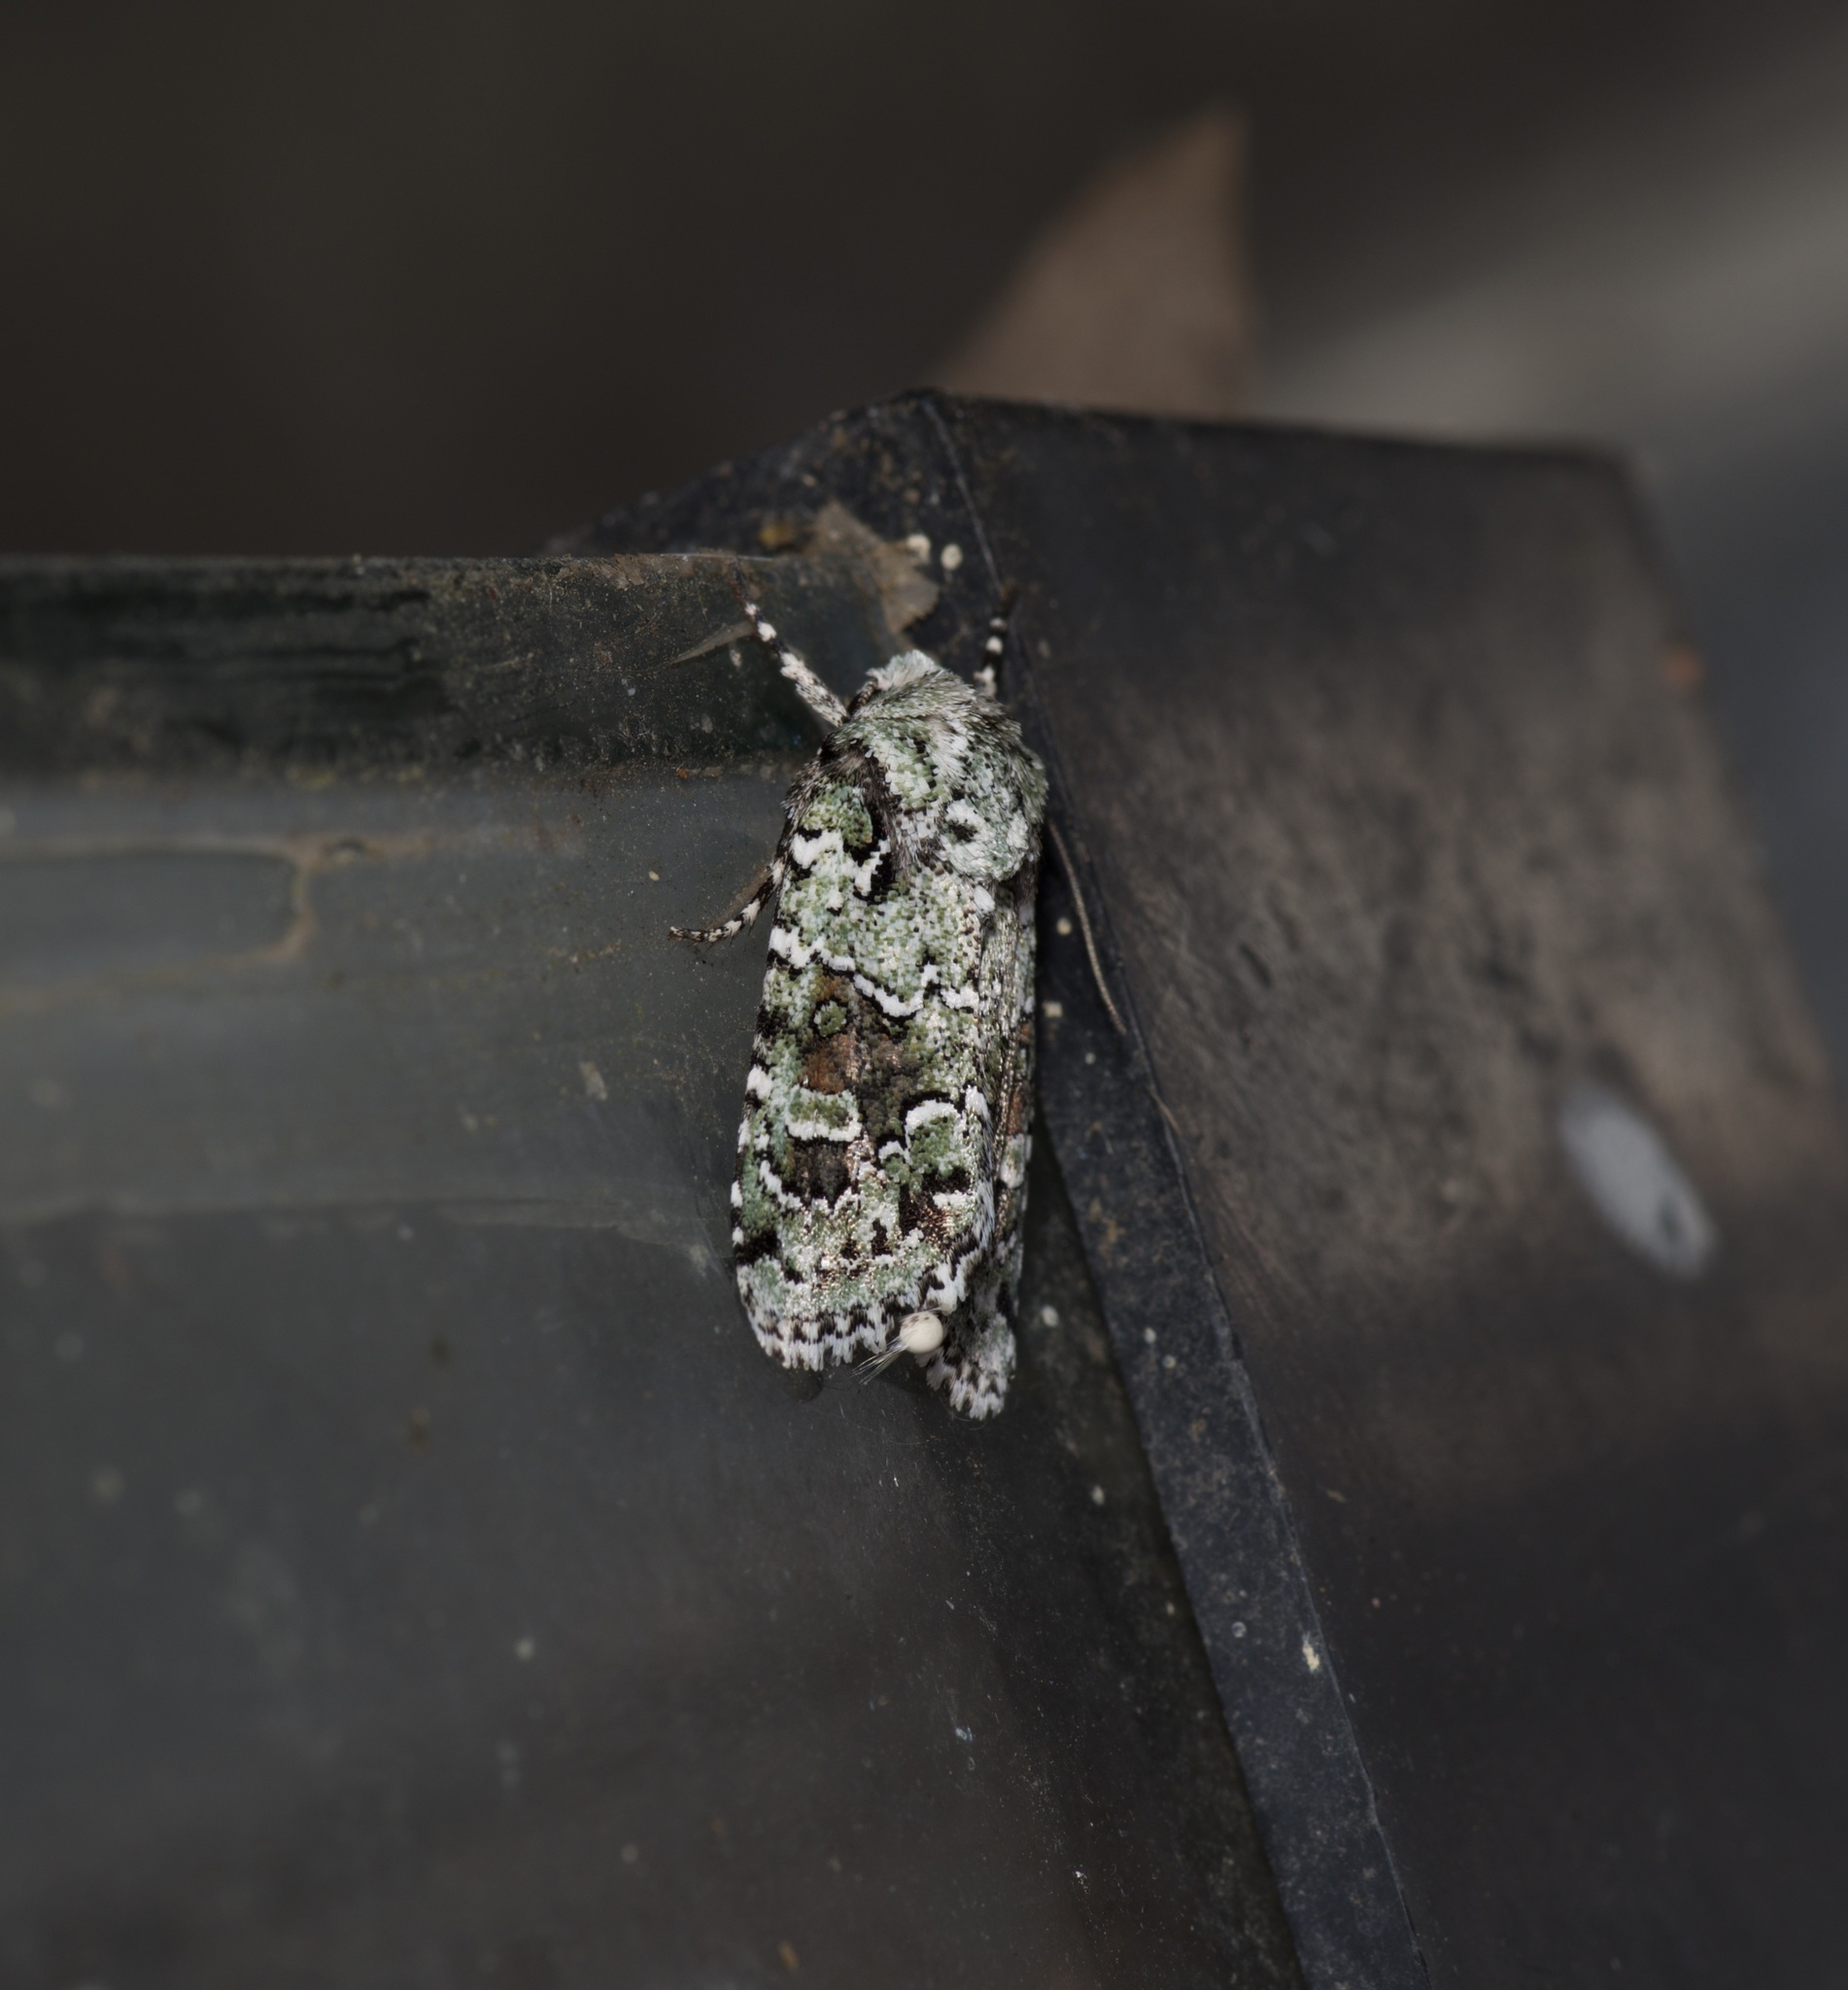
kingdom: Animalia
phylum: Arthropoda
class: Insecta
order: Lepidoptera
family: Noctuidae
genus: Lacinipolia
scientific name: Lacinipolia laudabilis
